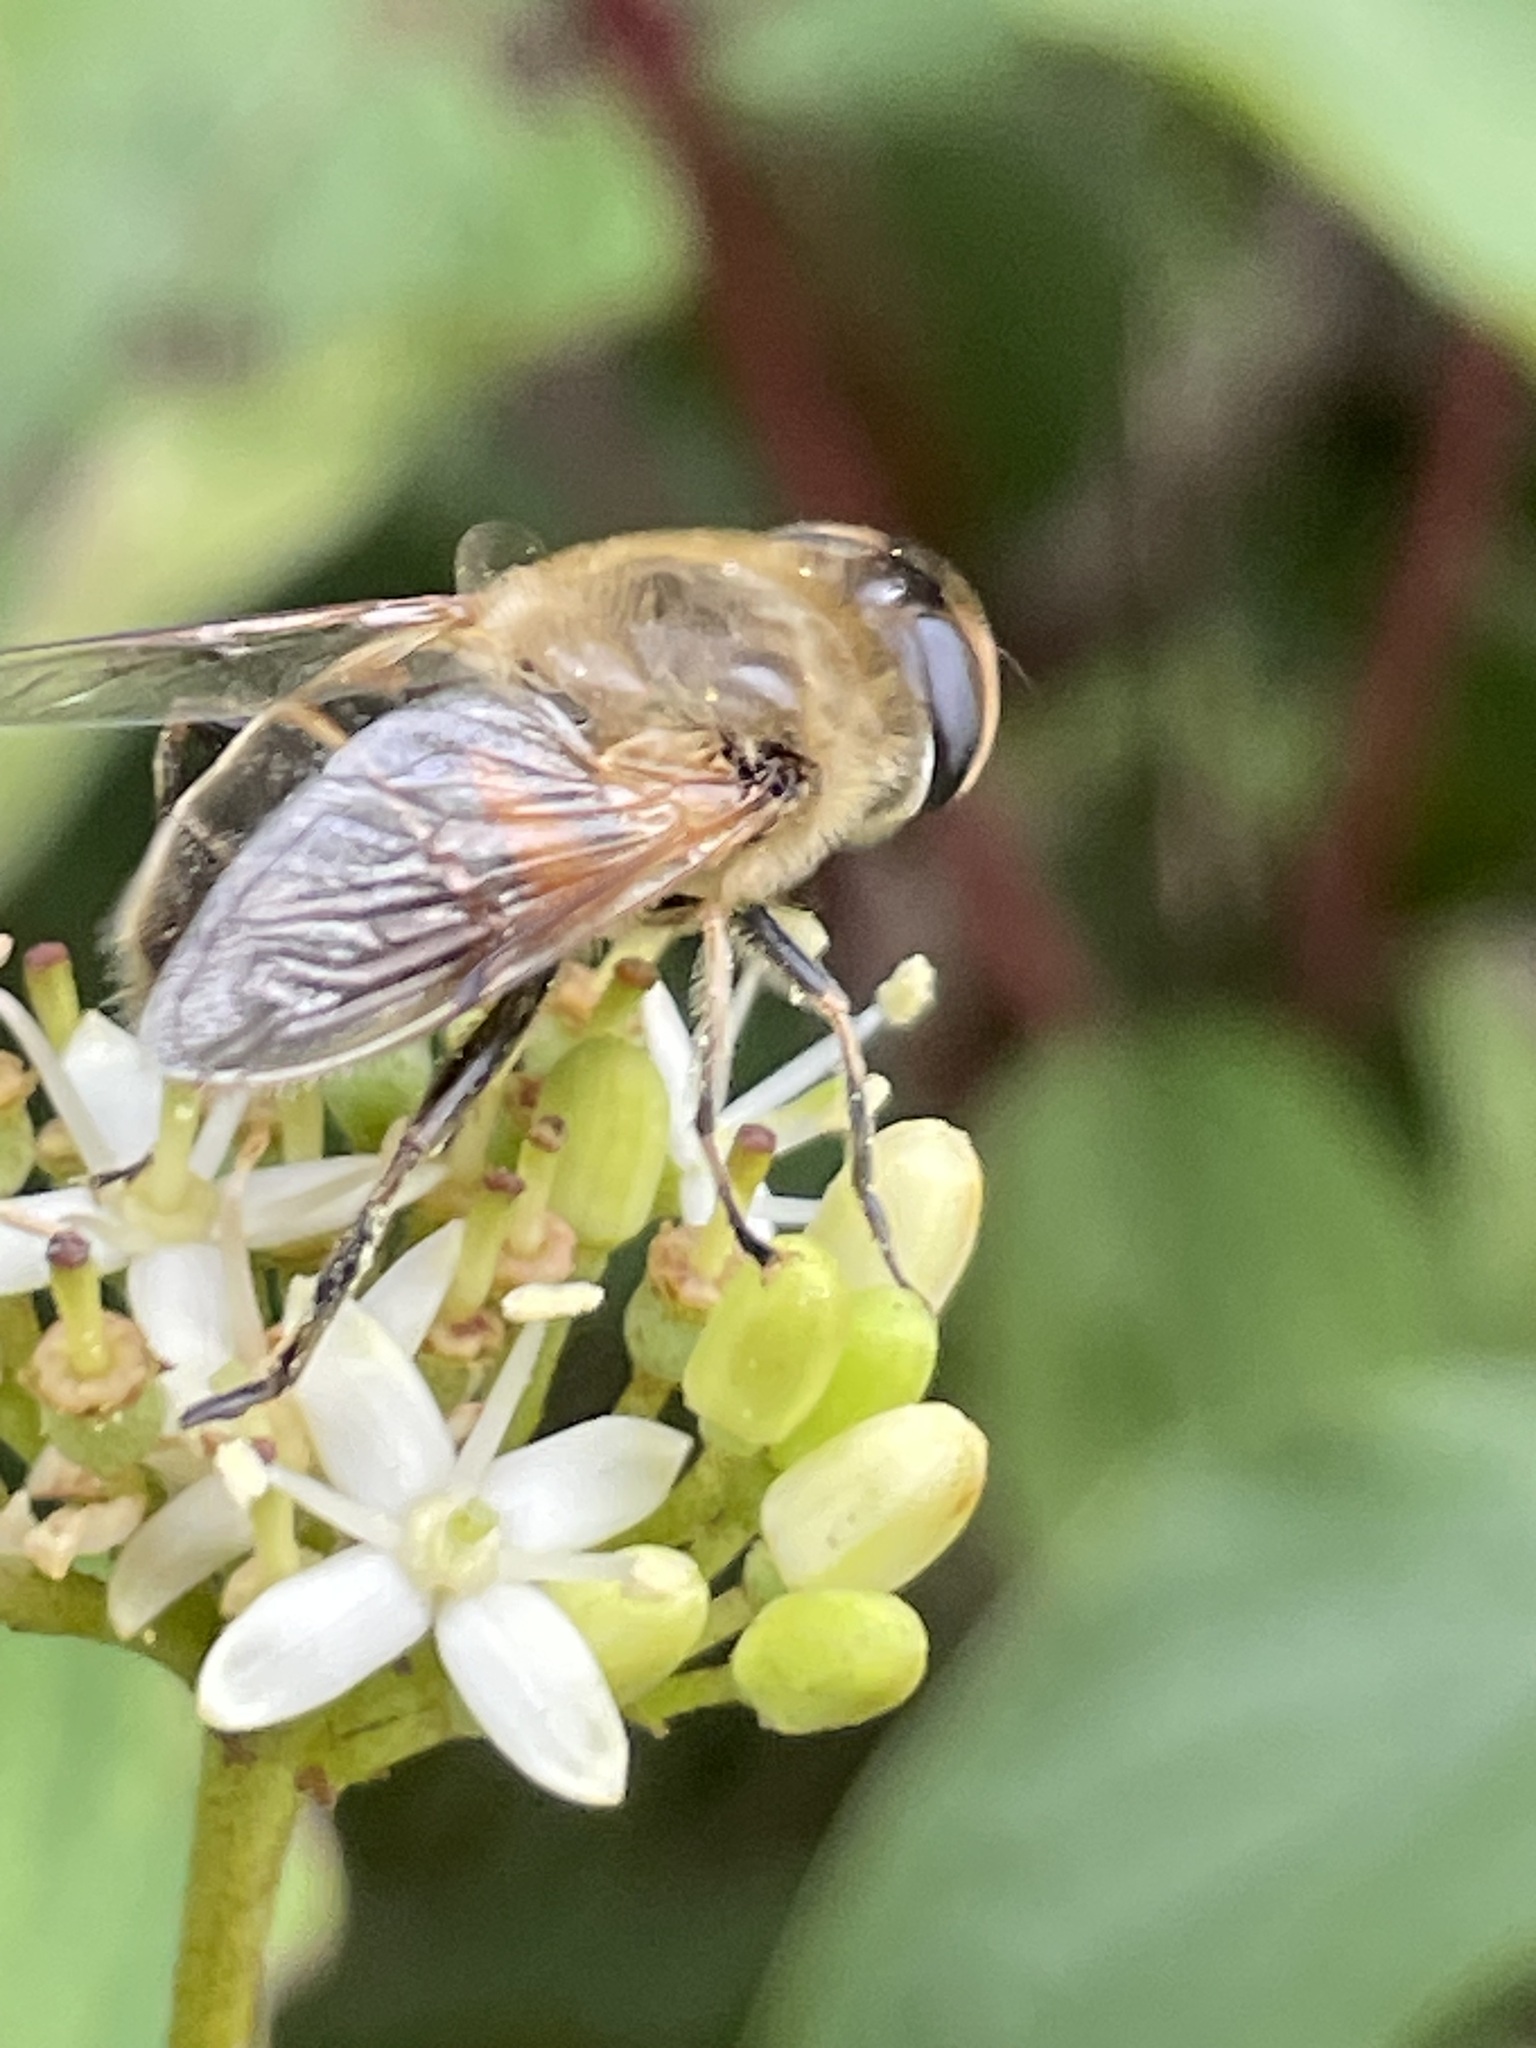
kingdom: Animalia
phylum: Arthropoda
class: Insecta
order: Diptera
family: Syrphidae
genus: Eristalis
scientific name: Eristalis tenax
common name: Drone fly
